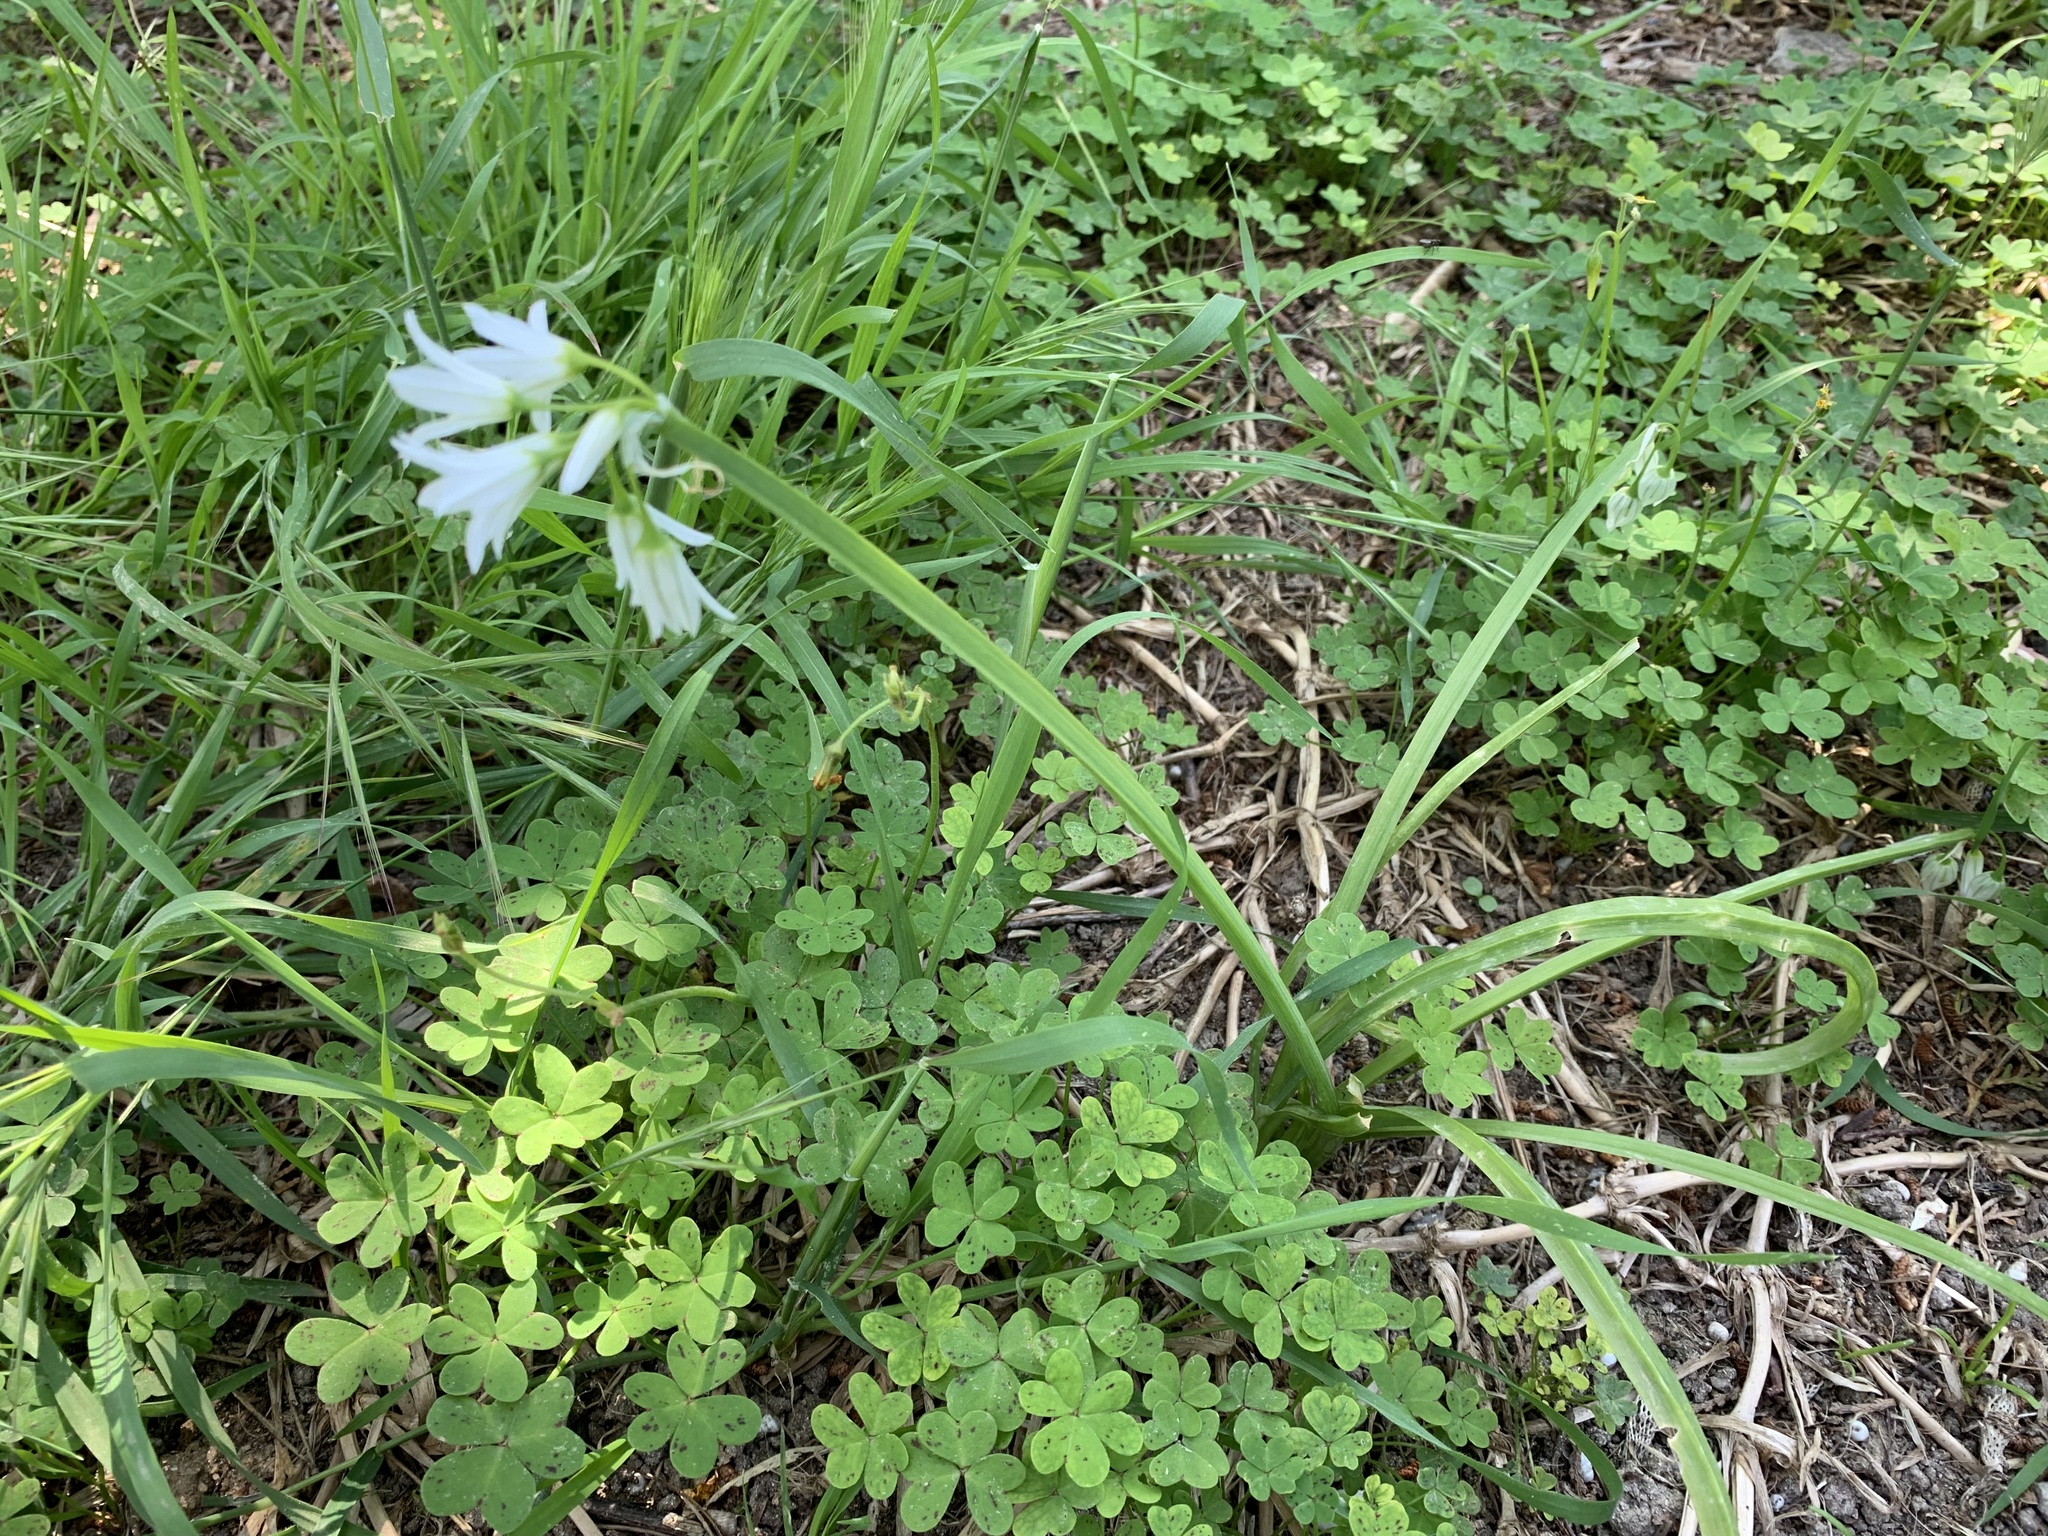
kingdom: Plantae
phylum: Tracheophyta
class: Liliopsida
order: Asparagales
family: Amaryllidaceae
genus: Allium
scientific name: Allium triquetrum
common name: Three-cornered garlic
